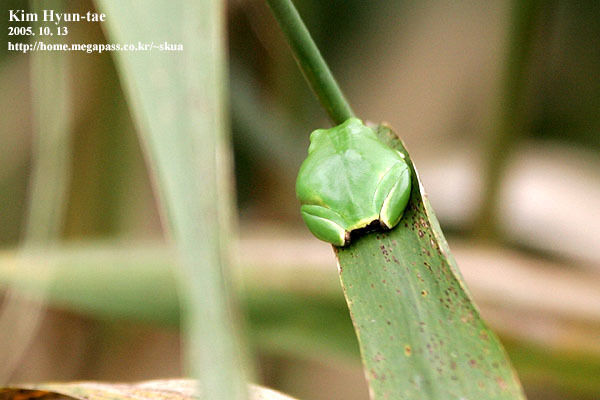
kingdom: Animalia
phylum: Chordata
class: Amphibia
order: Anura
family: Hylidae
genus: Dryophytes
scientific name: Dryophytes japonicus
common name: Japanese treefrog
